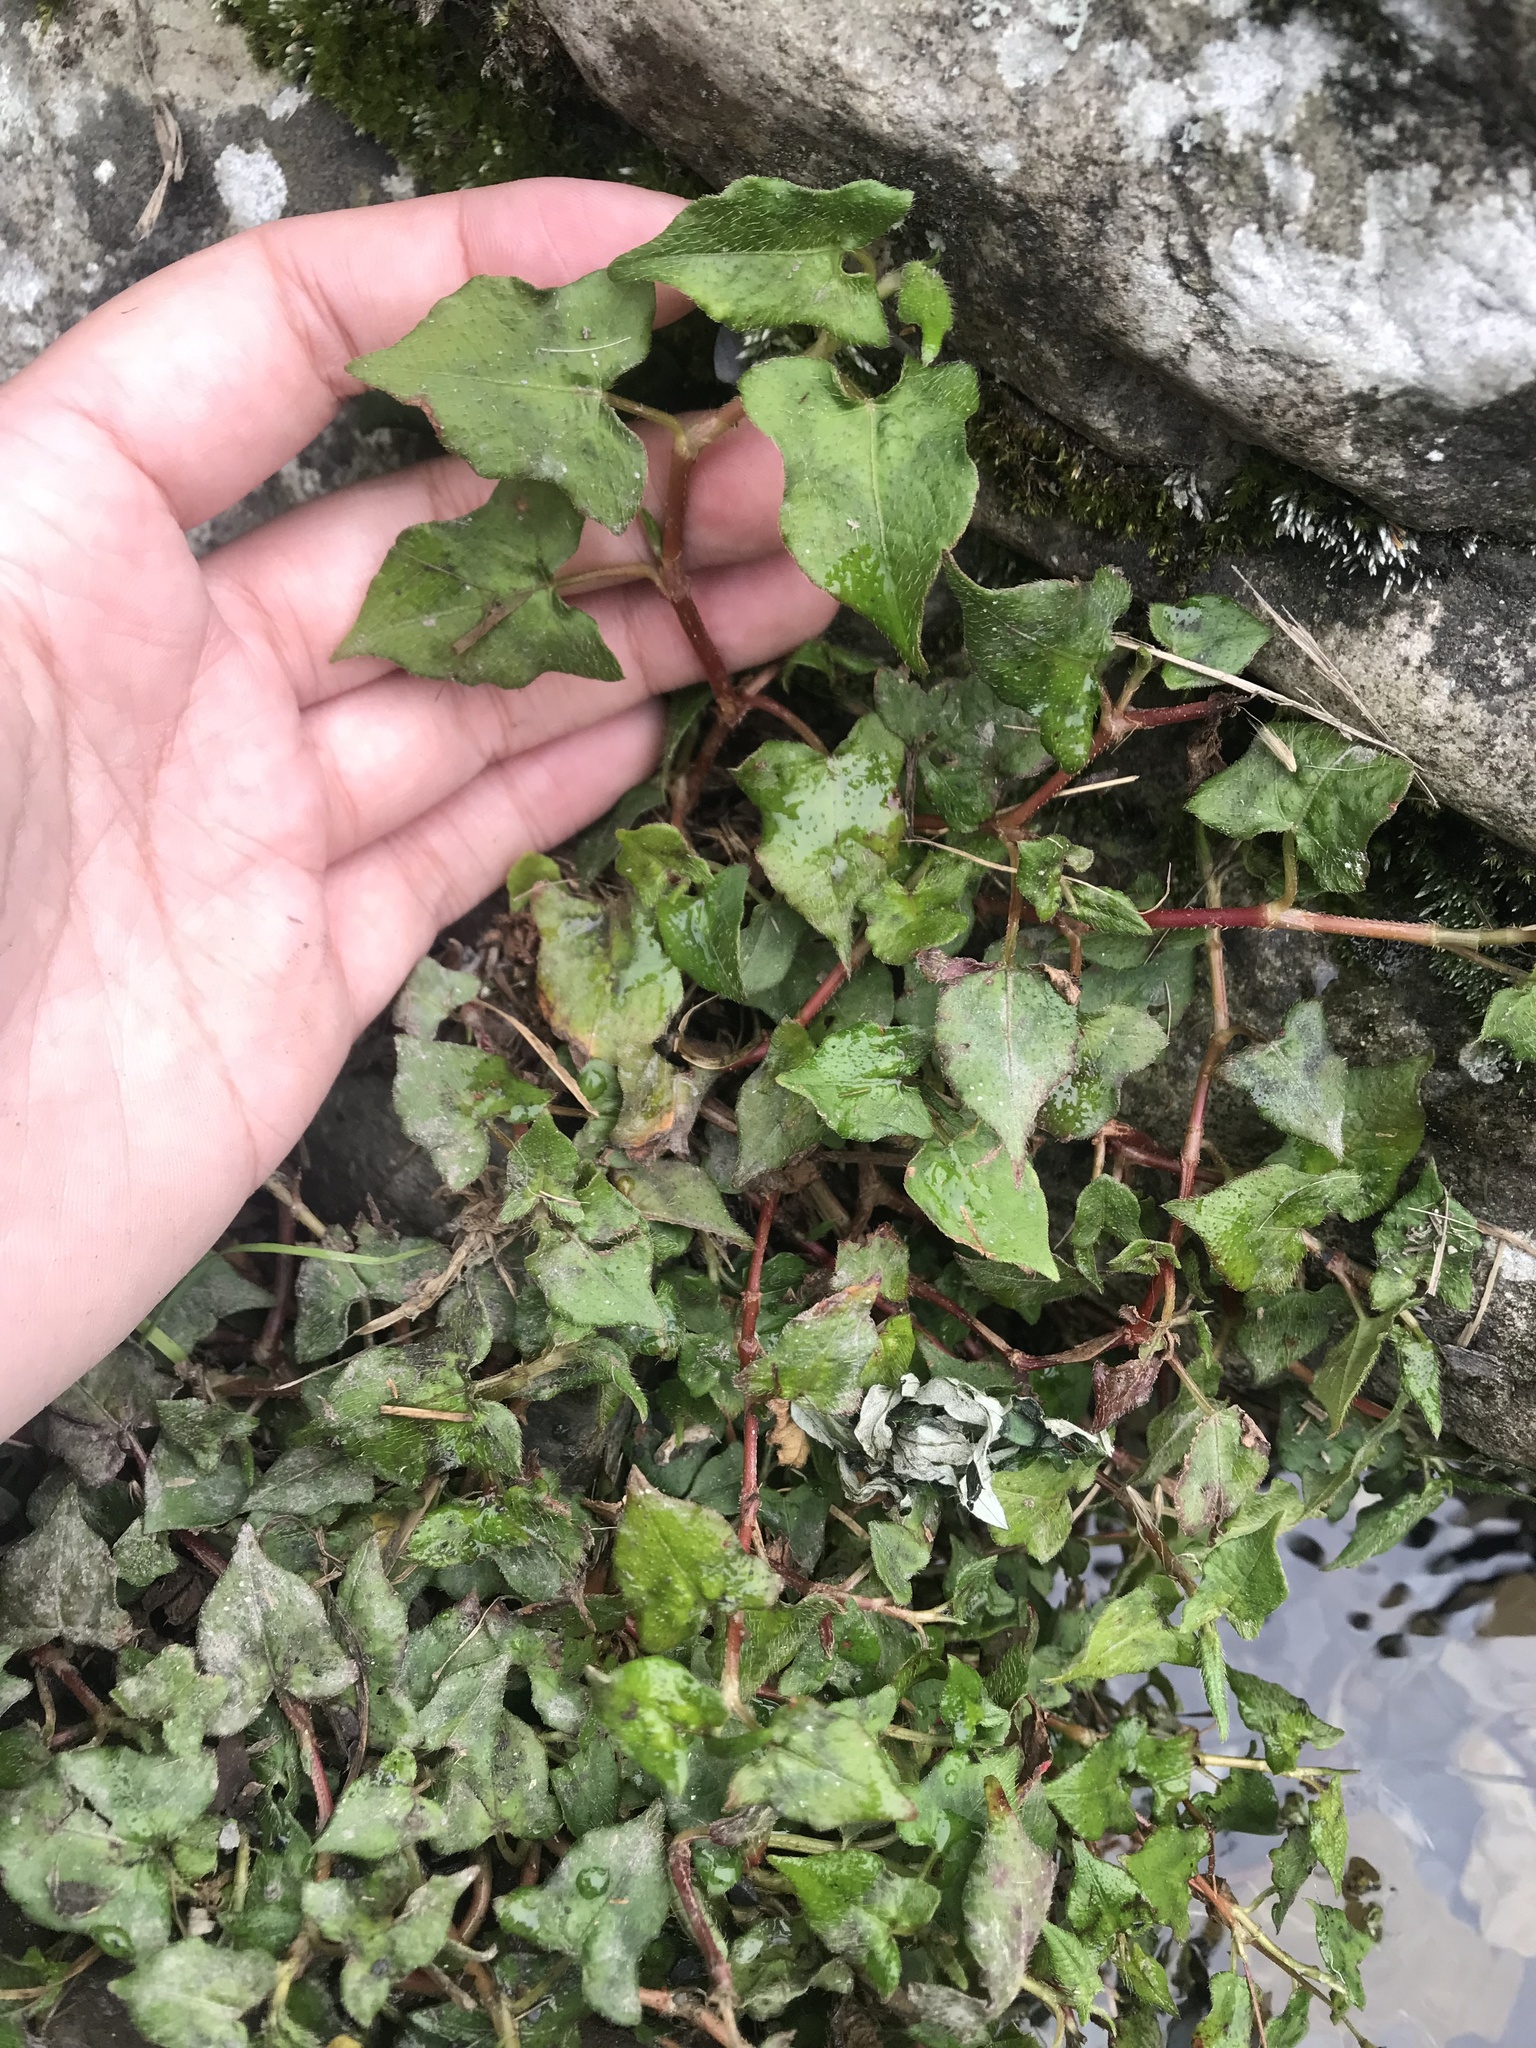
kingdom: Plantae
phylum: Tracheophyta
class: Magnoliopsida
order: Caryophyllales
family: Polygonaceae
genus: Persicaria
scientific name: Persicaria biconvexa
